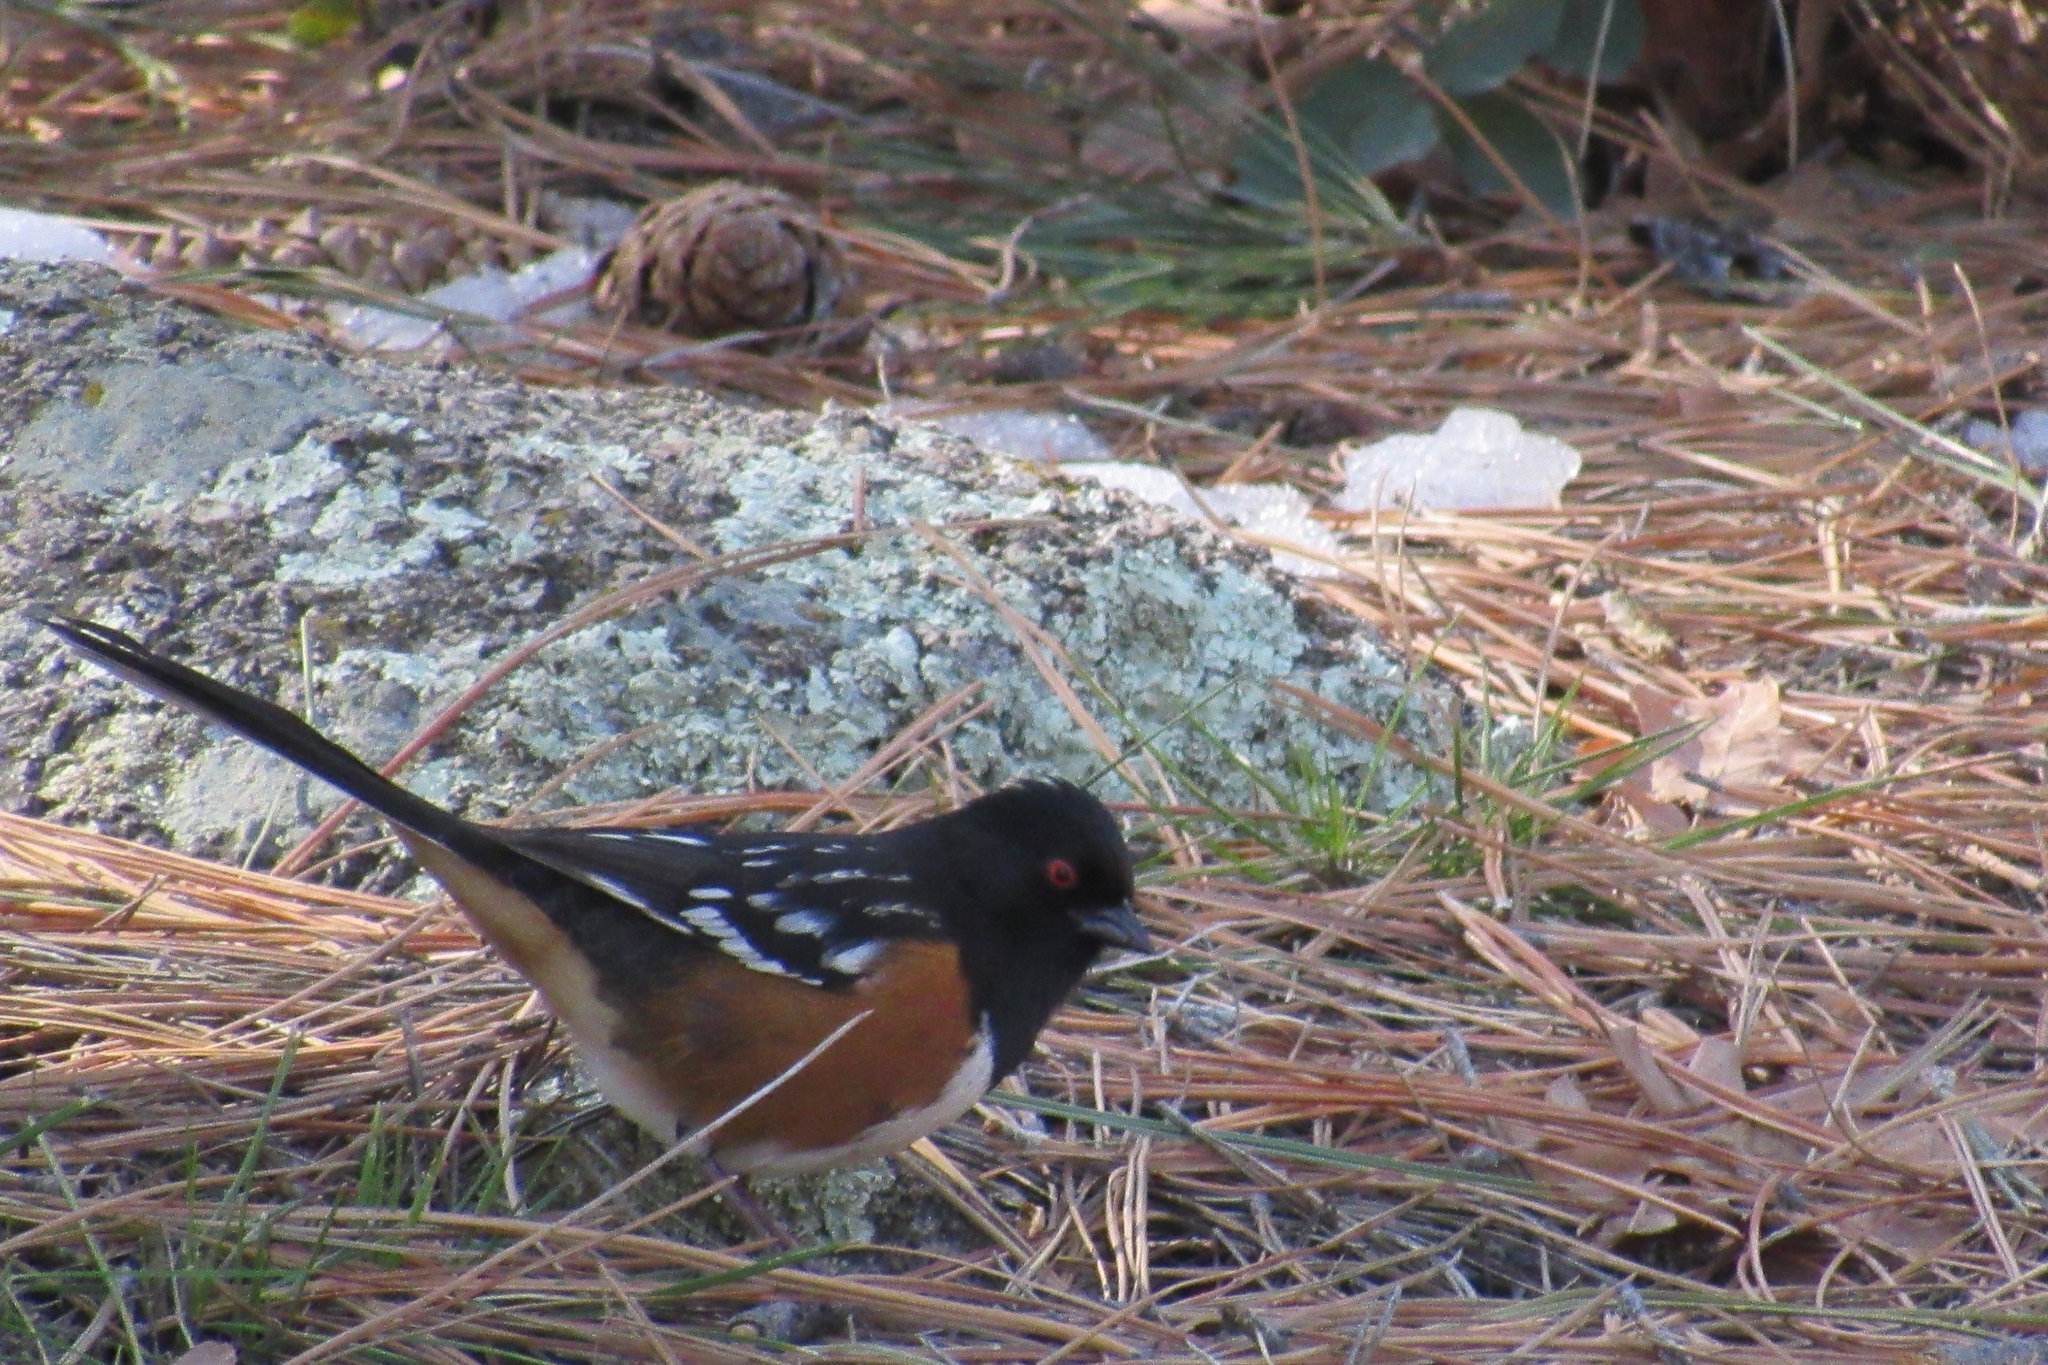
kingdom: Animalia
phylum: Chordata
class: Aves
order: Passeriformes
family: Passerellidae
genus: Pipilo
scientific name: Pipilo maculatus
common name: Spotted towhee
